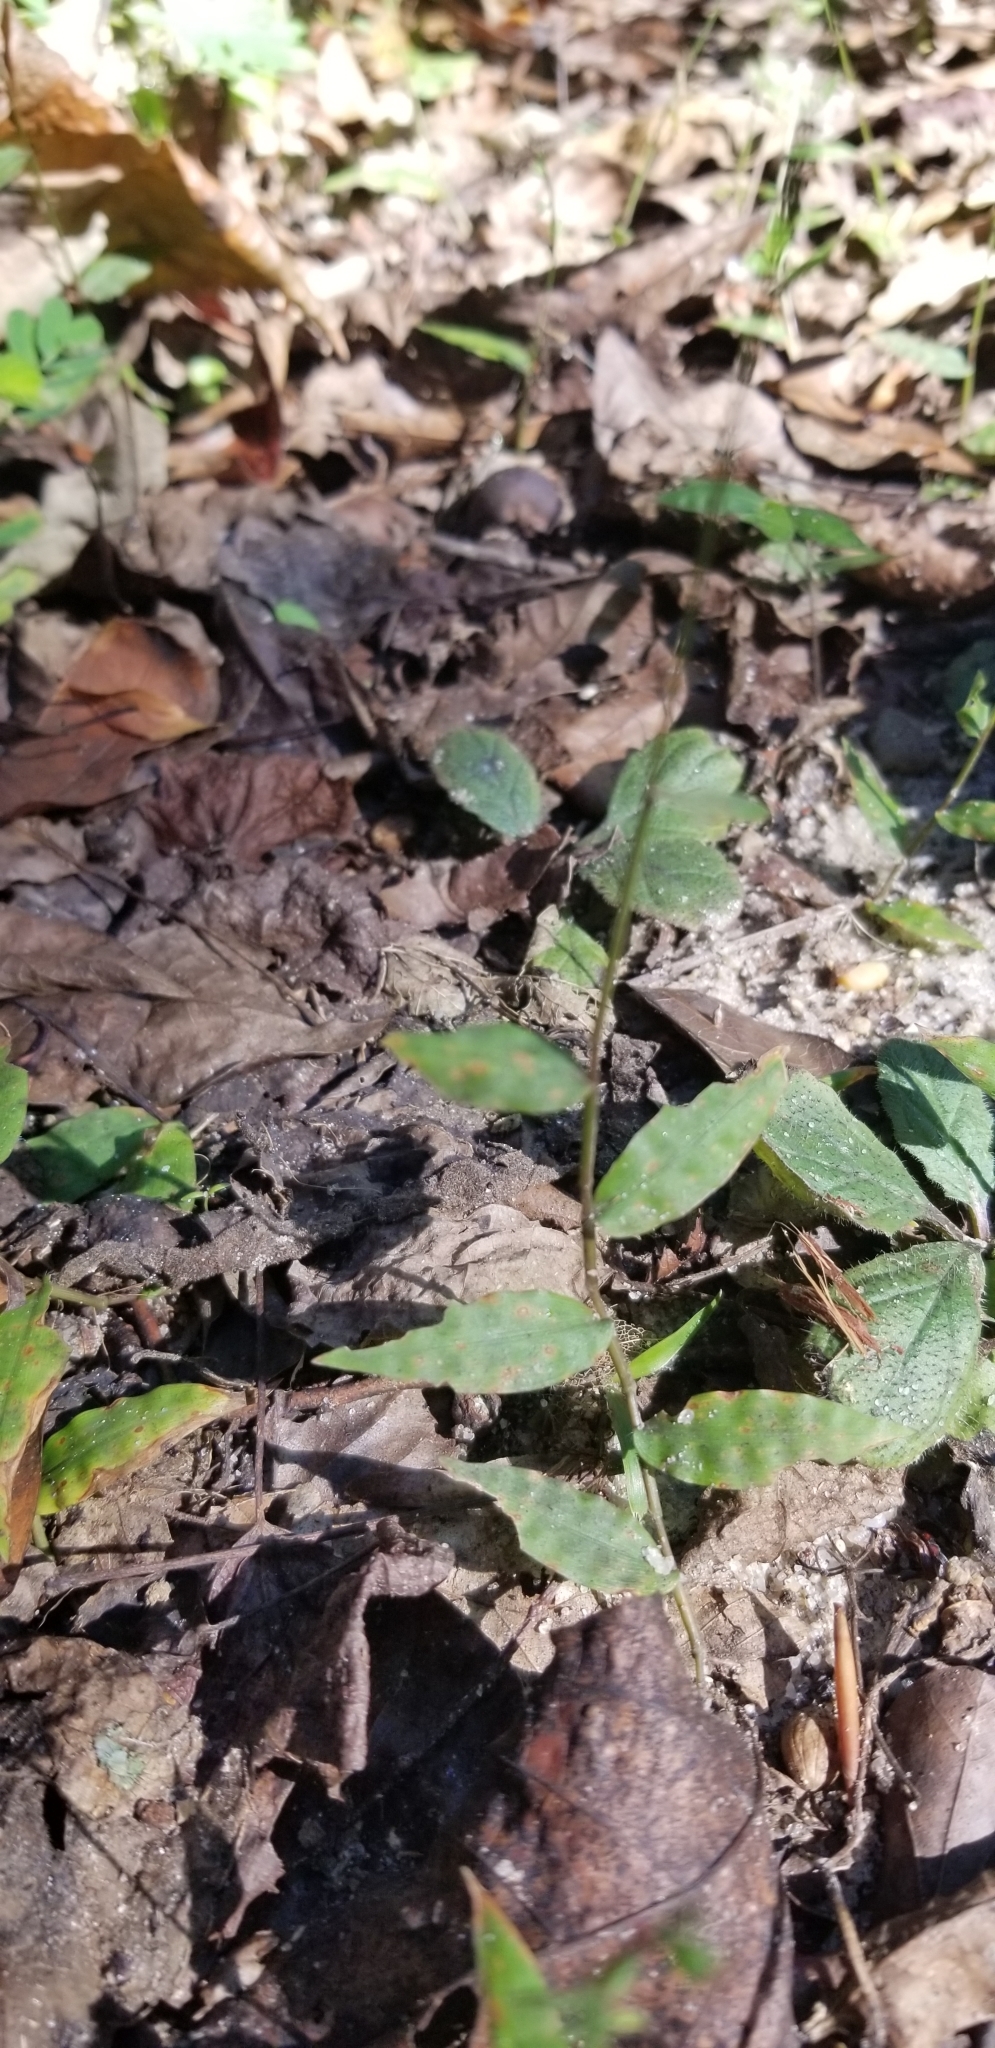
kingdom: Plantae
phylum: Tracheophyta
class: Liliopsida
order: Poales
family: Poaceae
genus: Oplismenus
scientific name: Oplismenus compositus
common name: Running mountain grass
